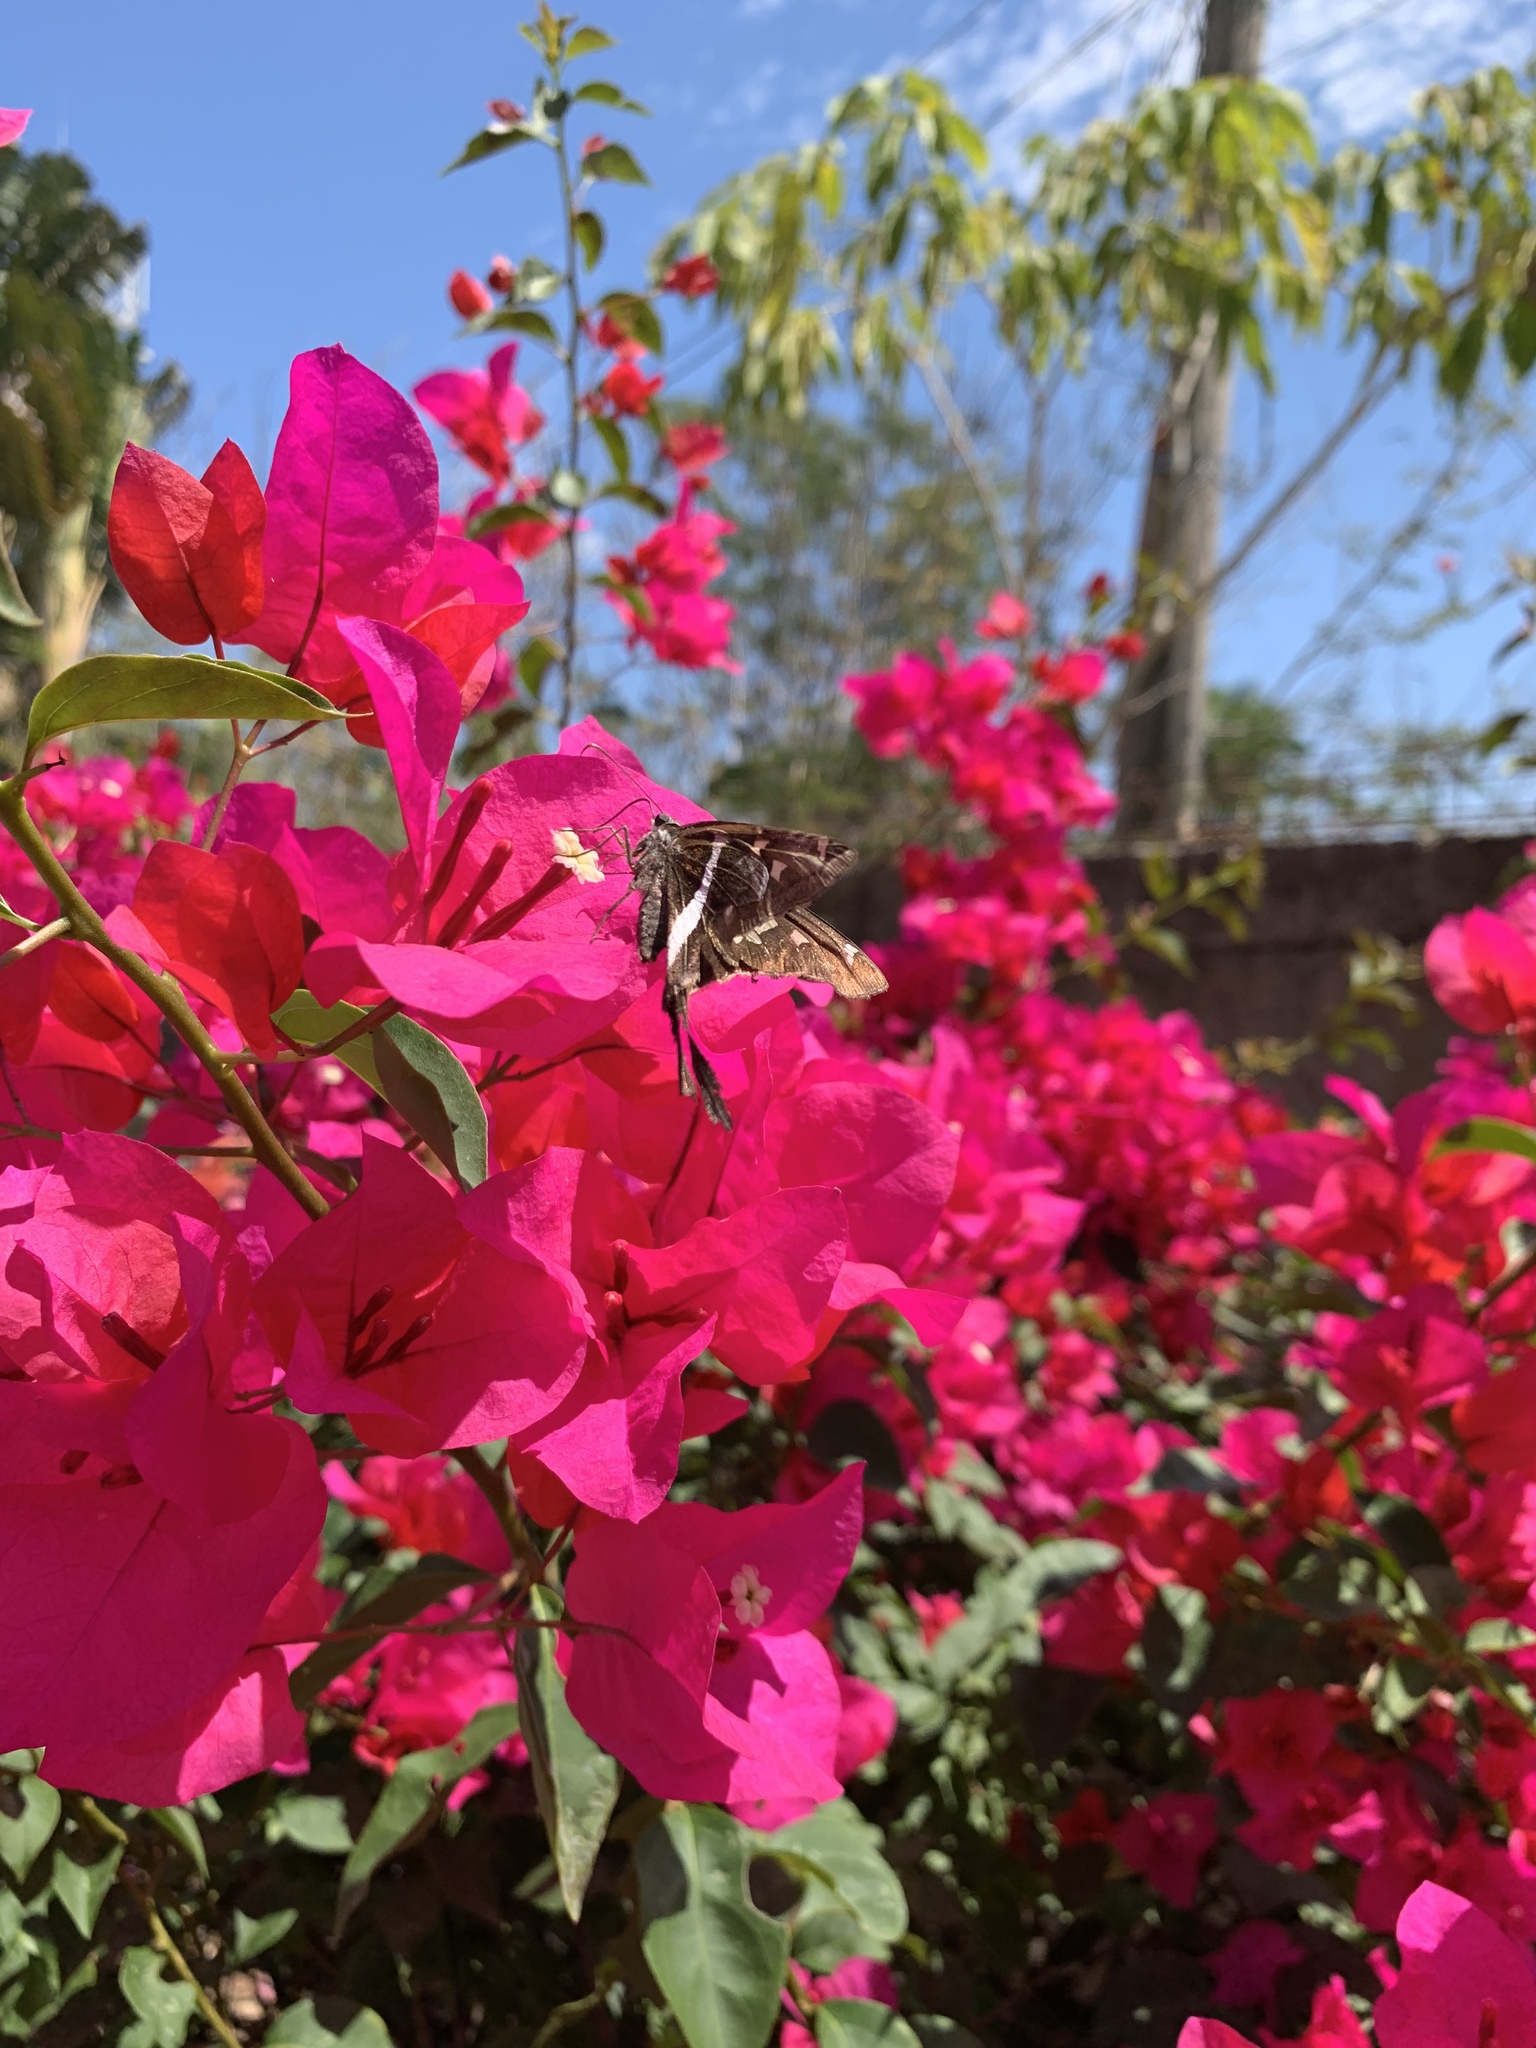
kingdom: Animalia
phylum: Arthropoda
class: Insecta
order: Lepidoptera
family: Hesperiidae
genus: Chioides
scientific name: Chioides catillus
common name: Silverbanded skipper
